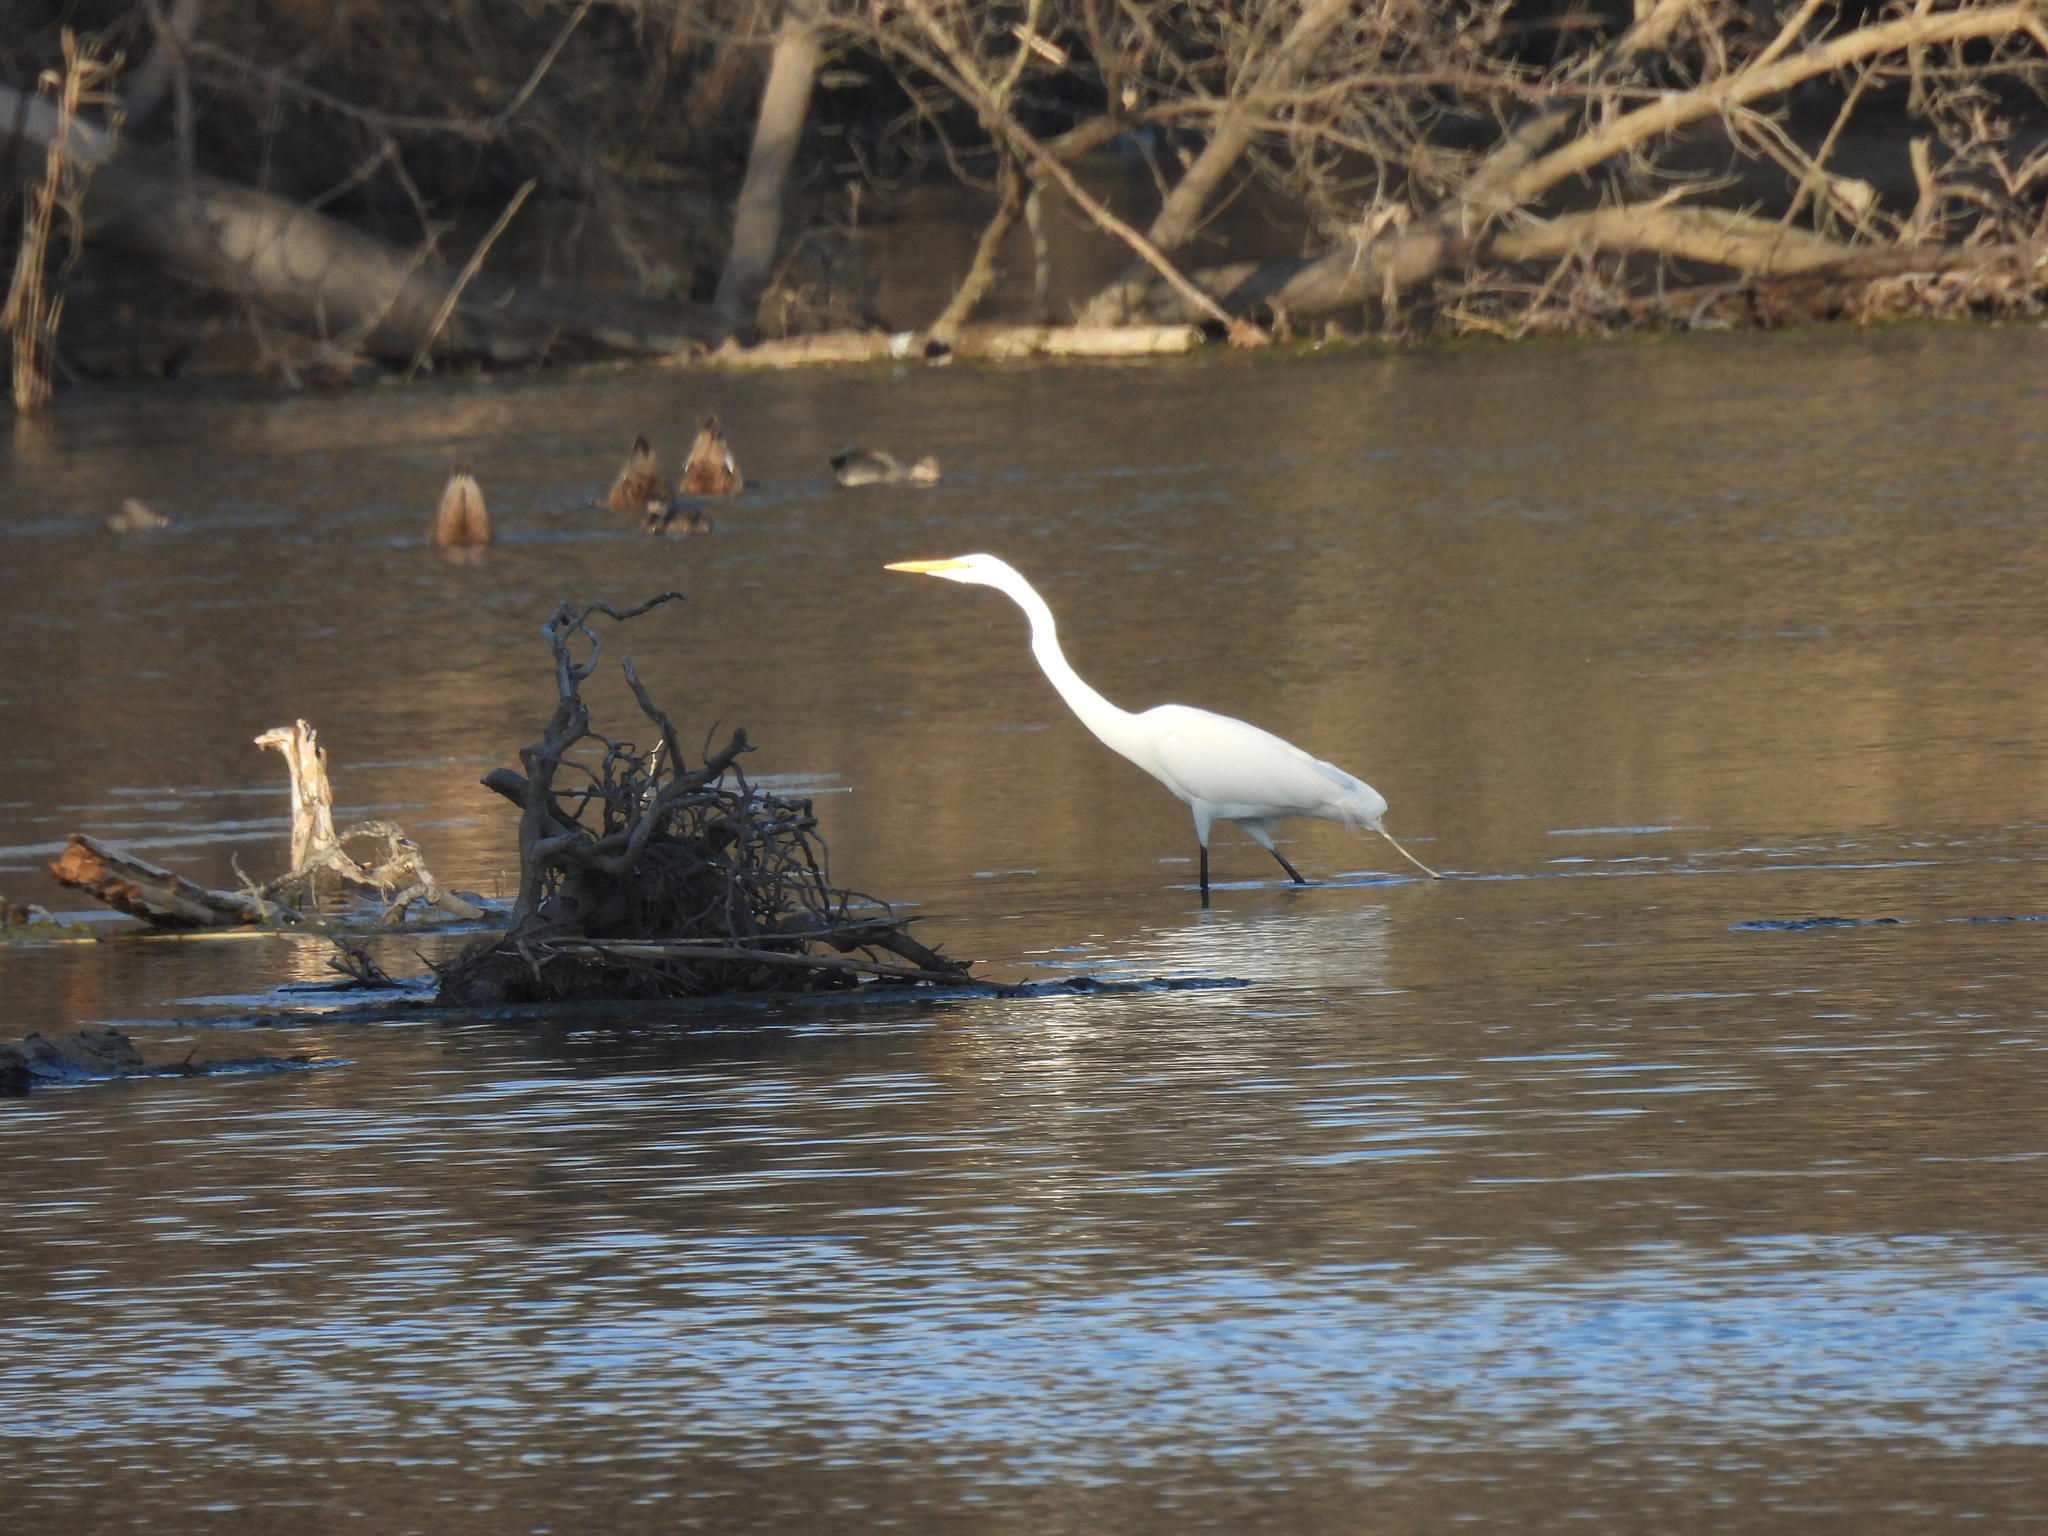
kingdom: Animalia
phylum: Chordata
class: Aves
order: Pelecaniformes
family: Ardeidae
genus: Ardea
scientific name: Ardea alba
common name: Great egret
